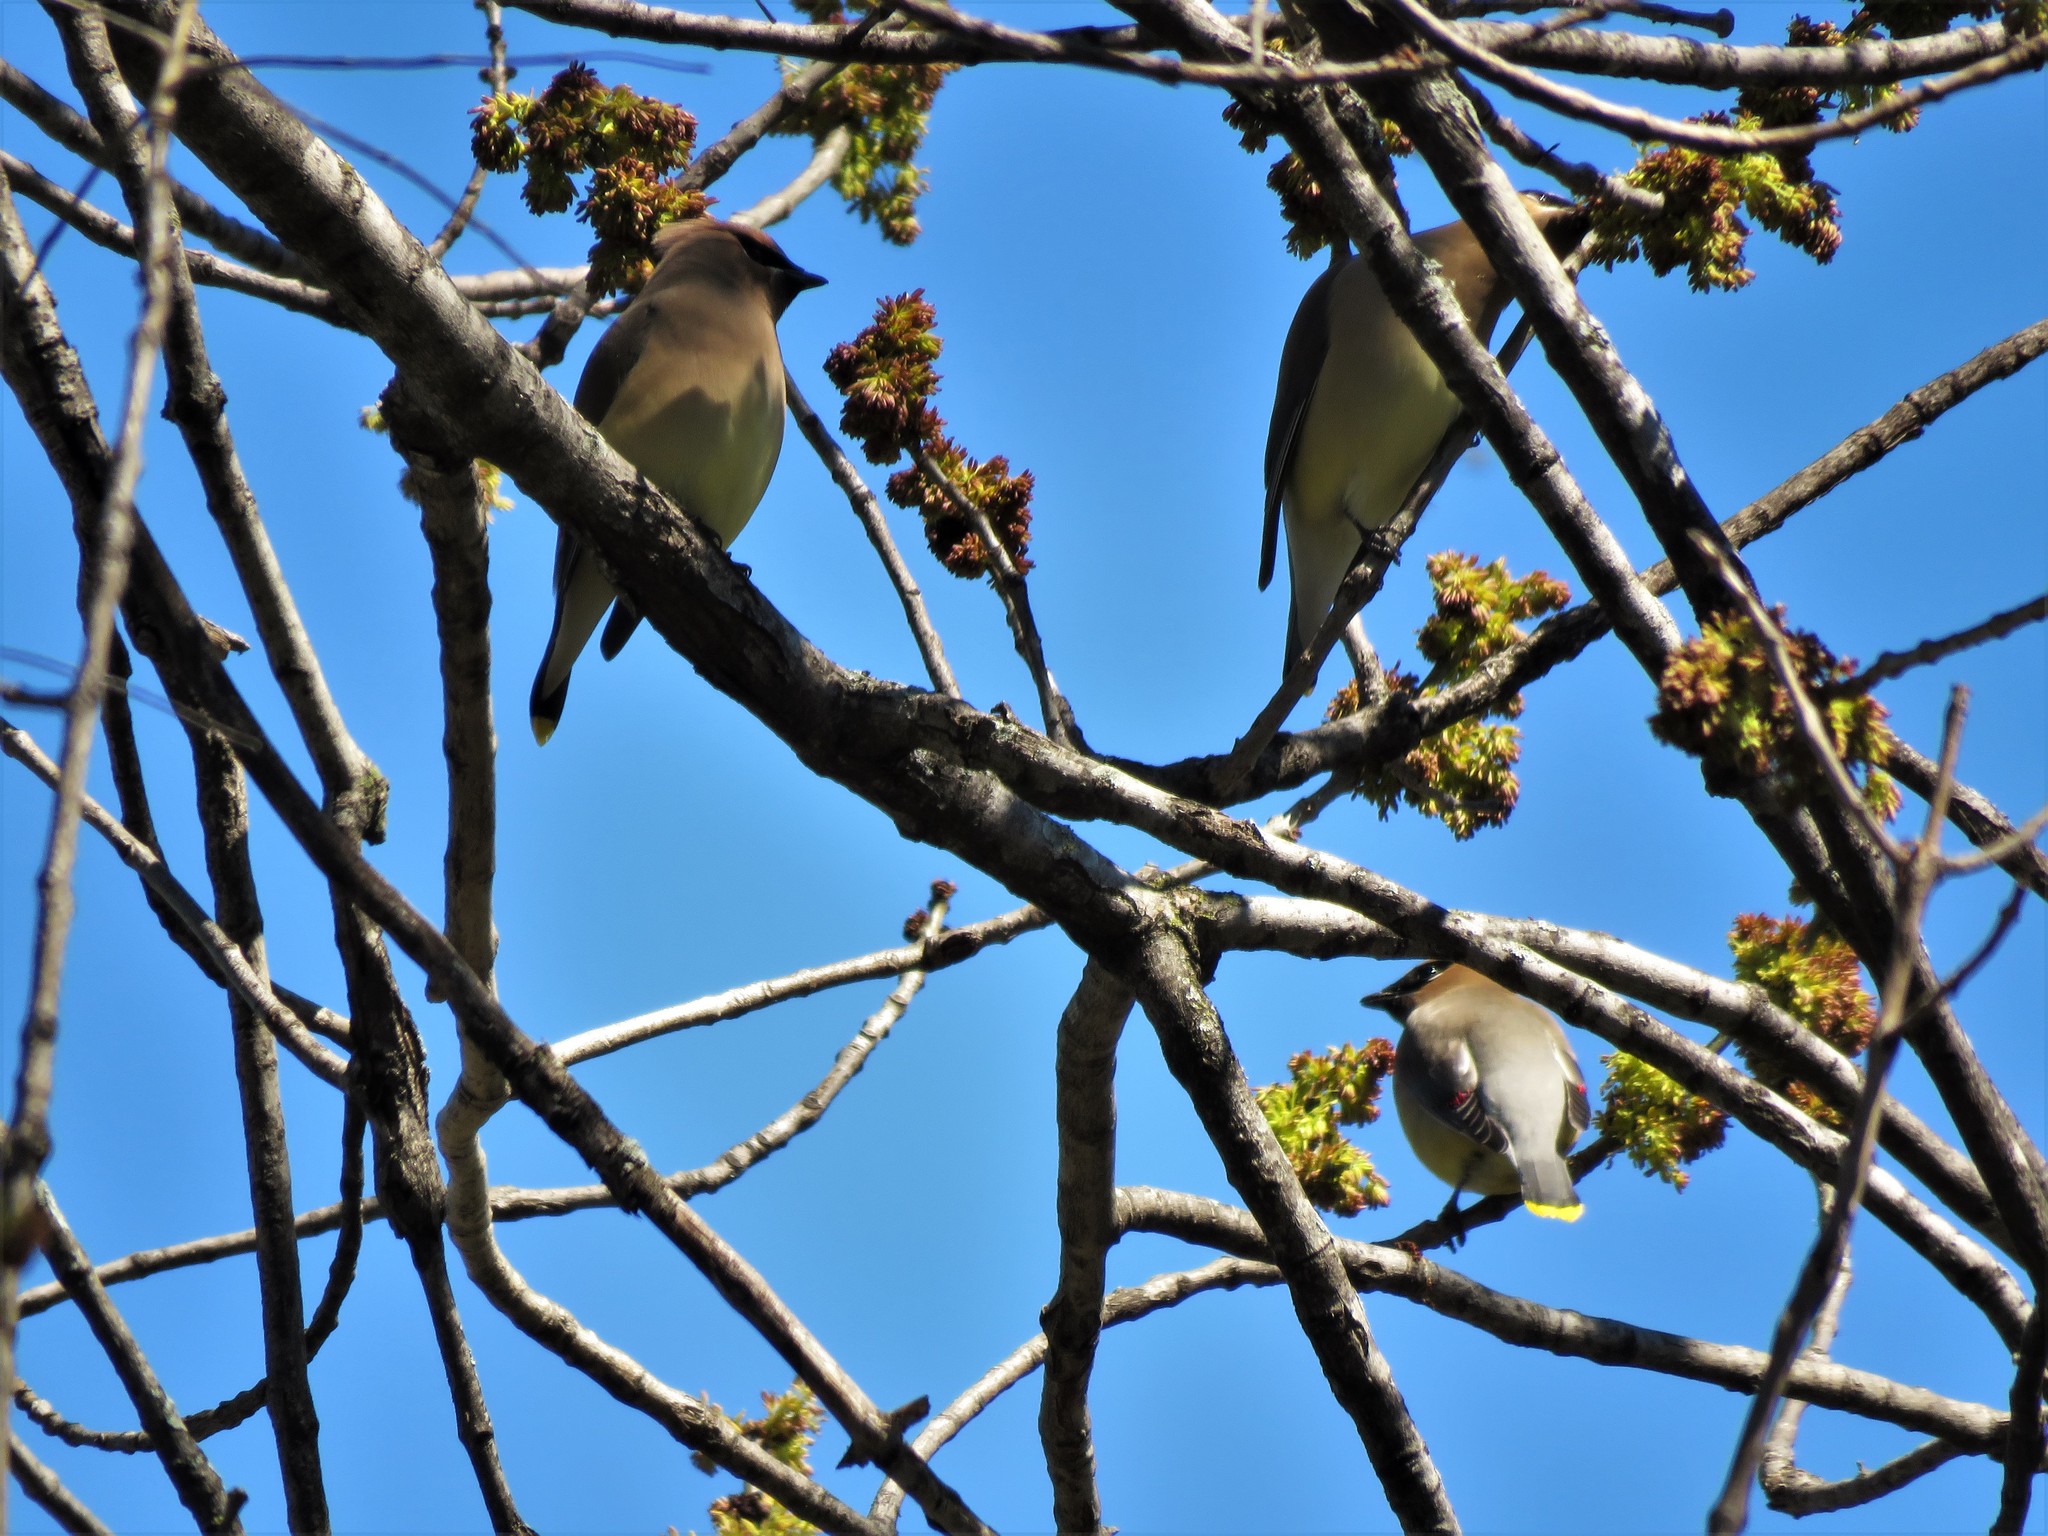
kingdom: Animalia
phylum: Chordata
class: Aves
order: Passeriformes
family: Bombycillidae
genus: Bombycilla
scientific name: Bombycilla cedrorum
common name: Cedar waxwing
